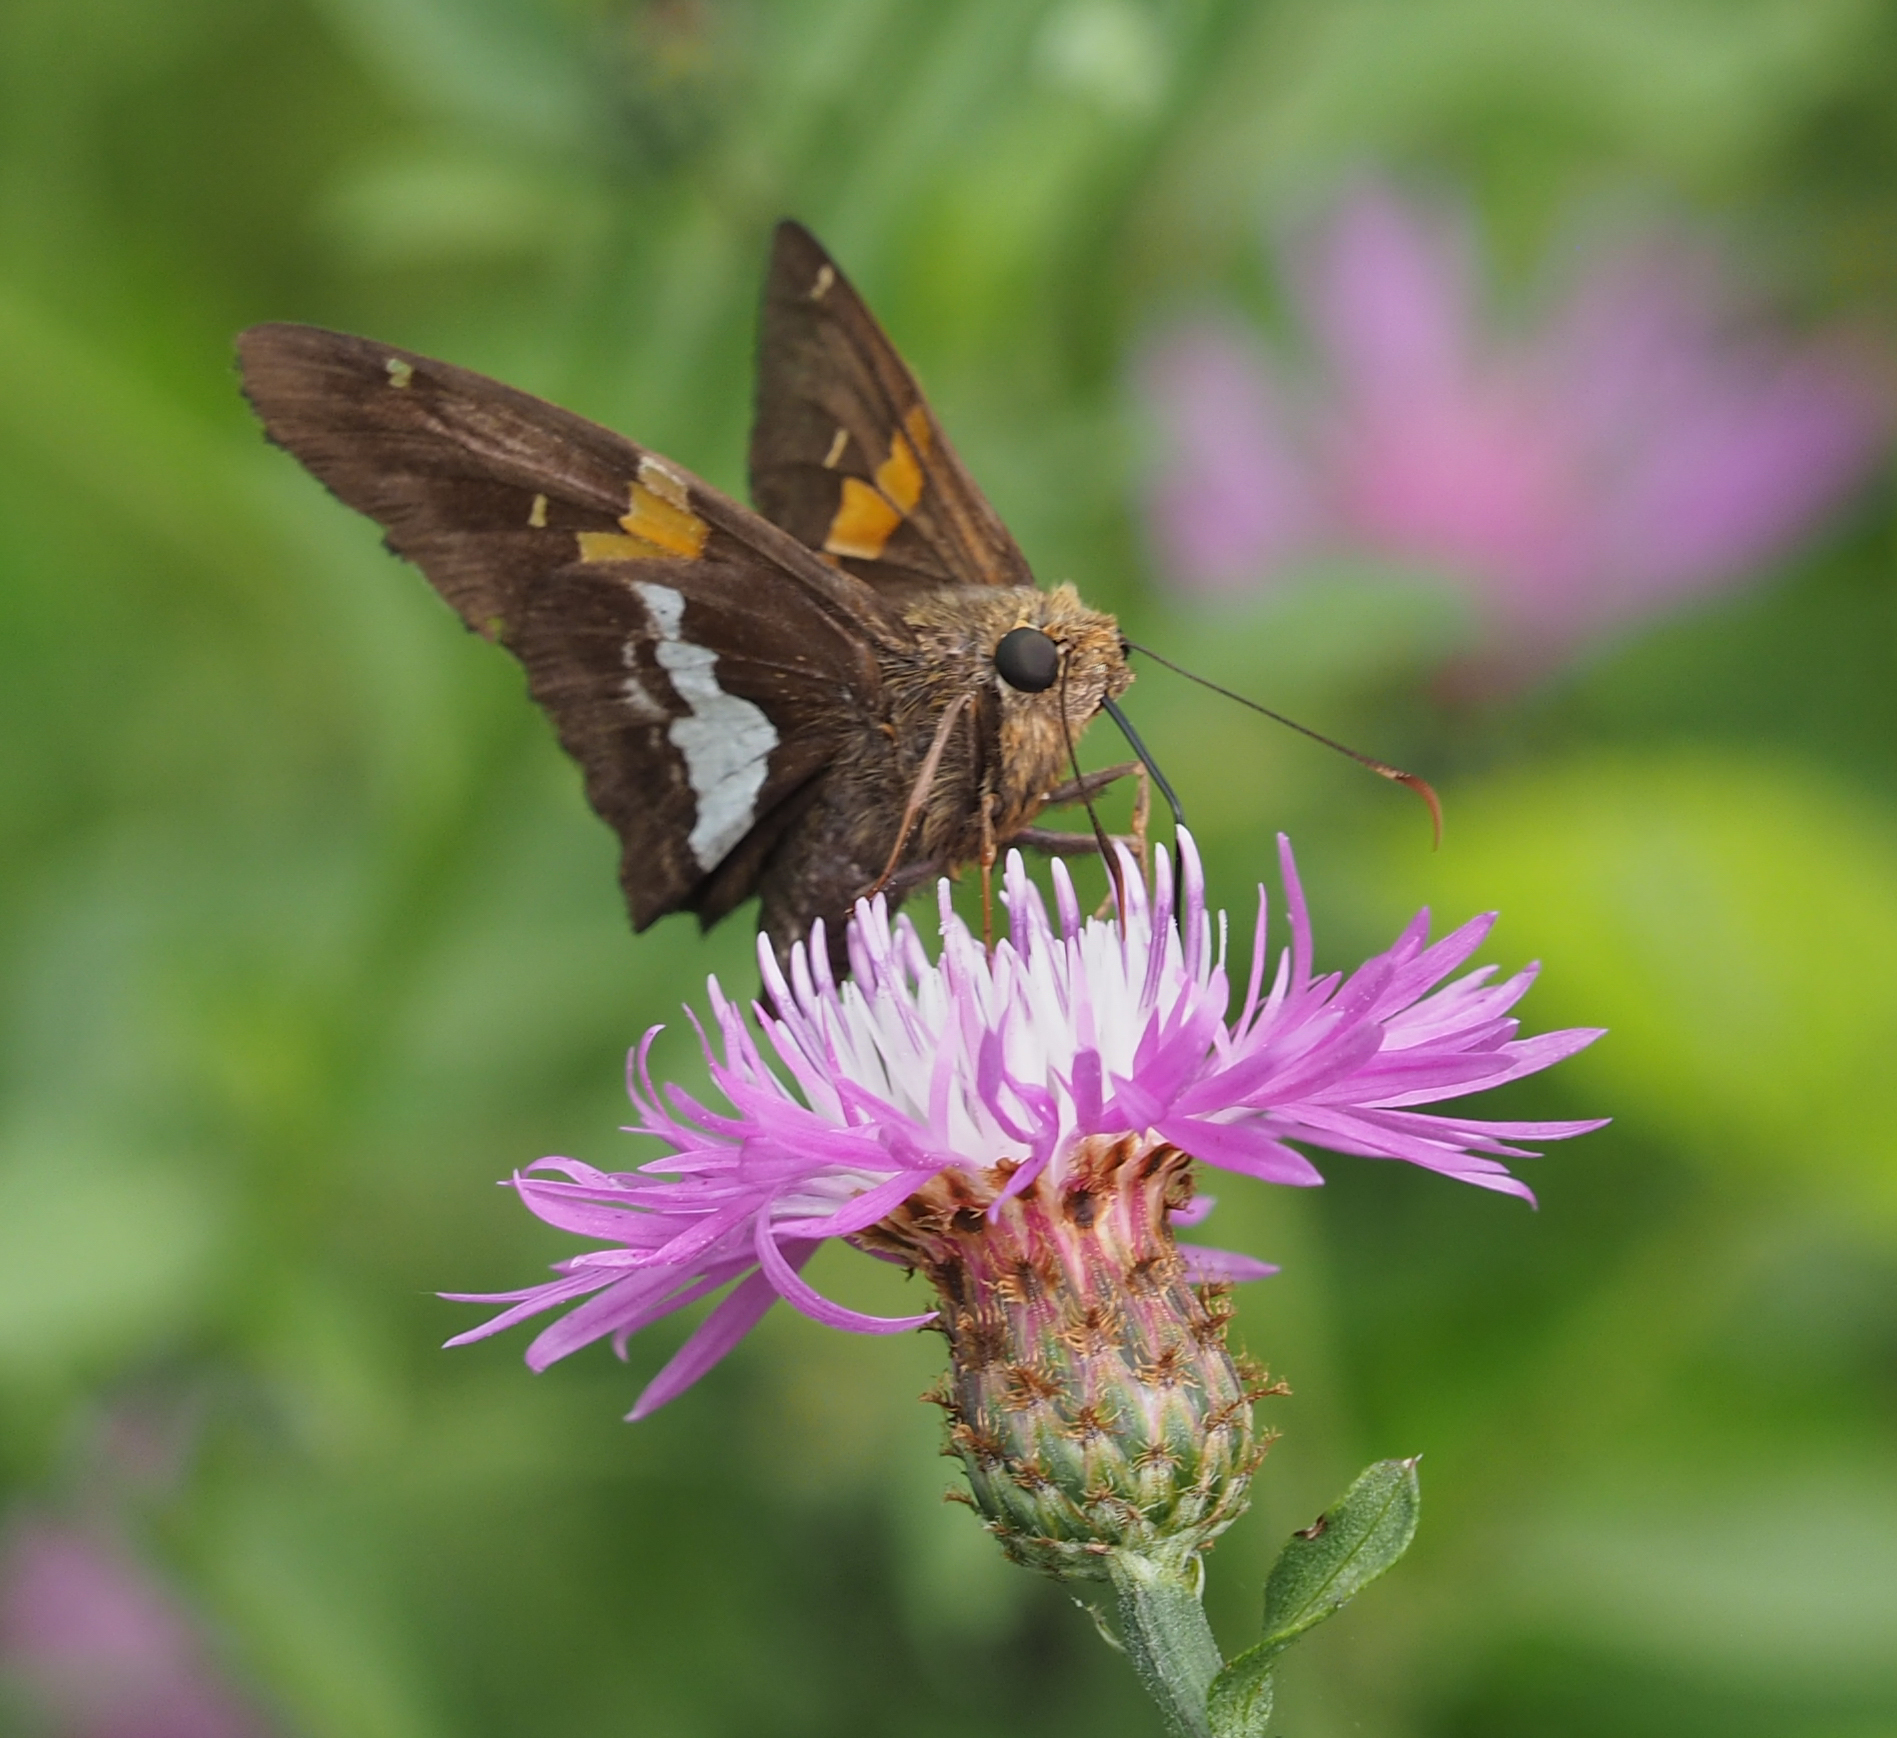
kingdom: Animalia
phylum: Arthropoda
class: Insecta
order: Lepidoptera
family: Hesperiidae
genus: Epargyreus
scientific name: Epargyreus clarus
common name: Silver-spotted skipper
